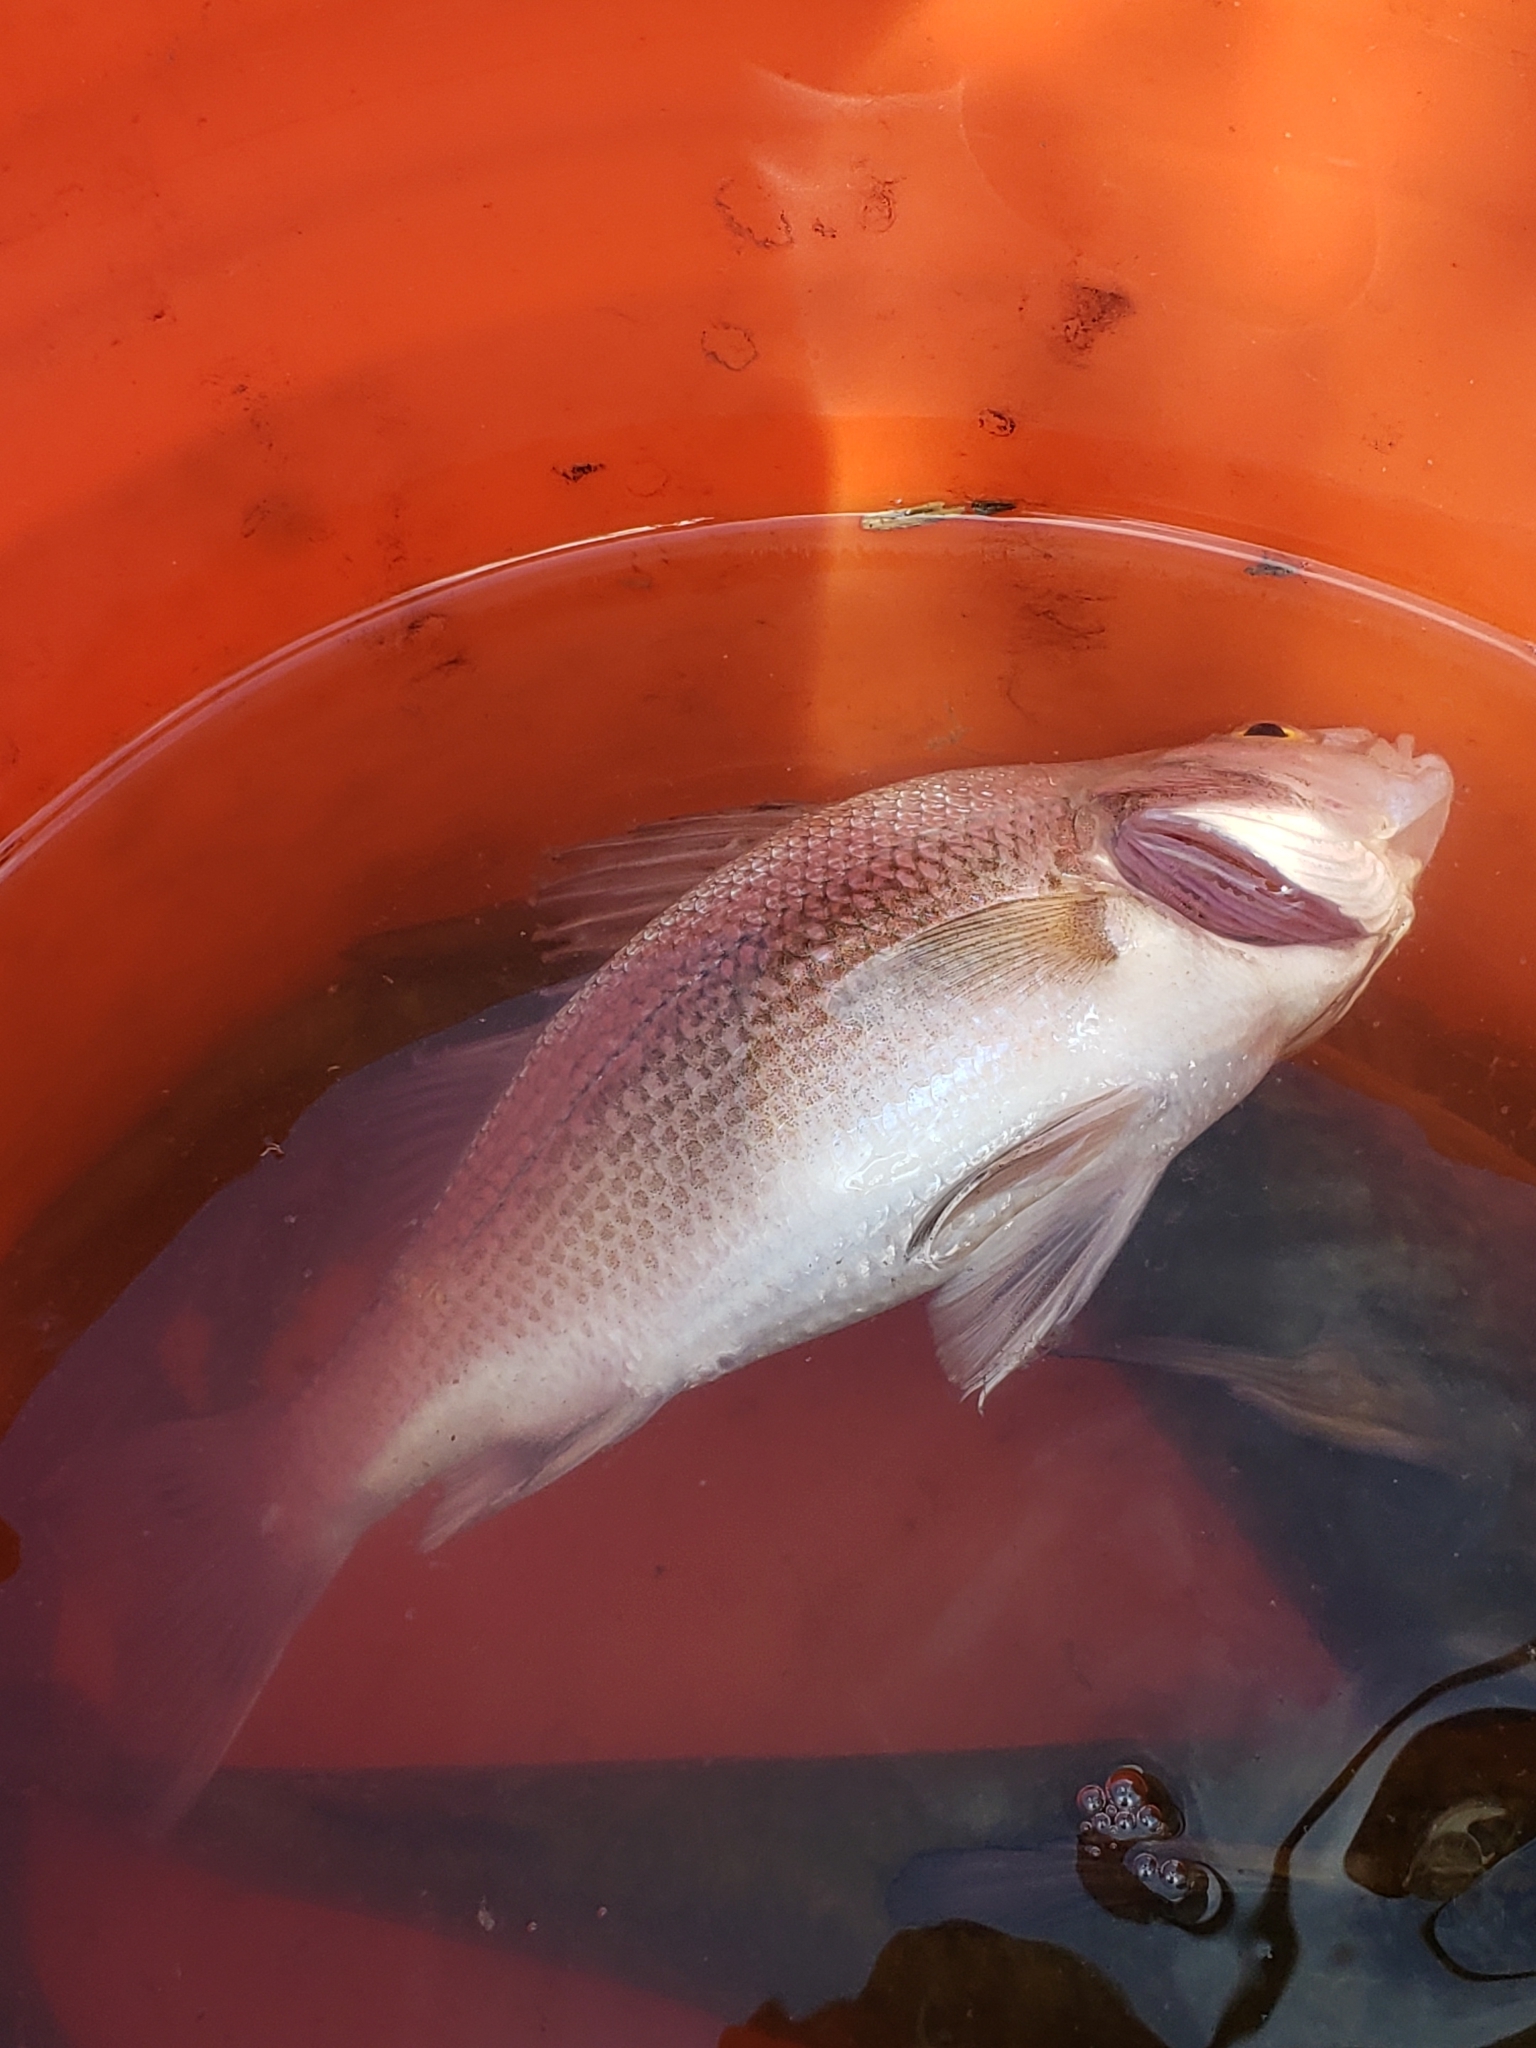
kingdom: Animalia
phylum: Chordata
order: Perciformes
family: Moronidae
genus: Morone
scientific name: Morone americana
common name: White perch
